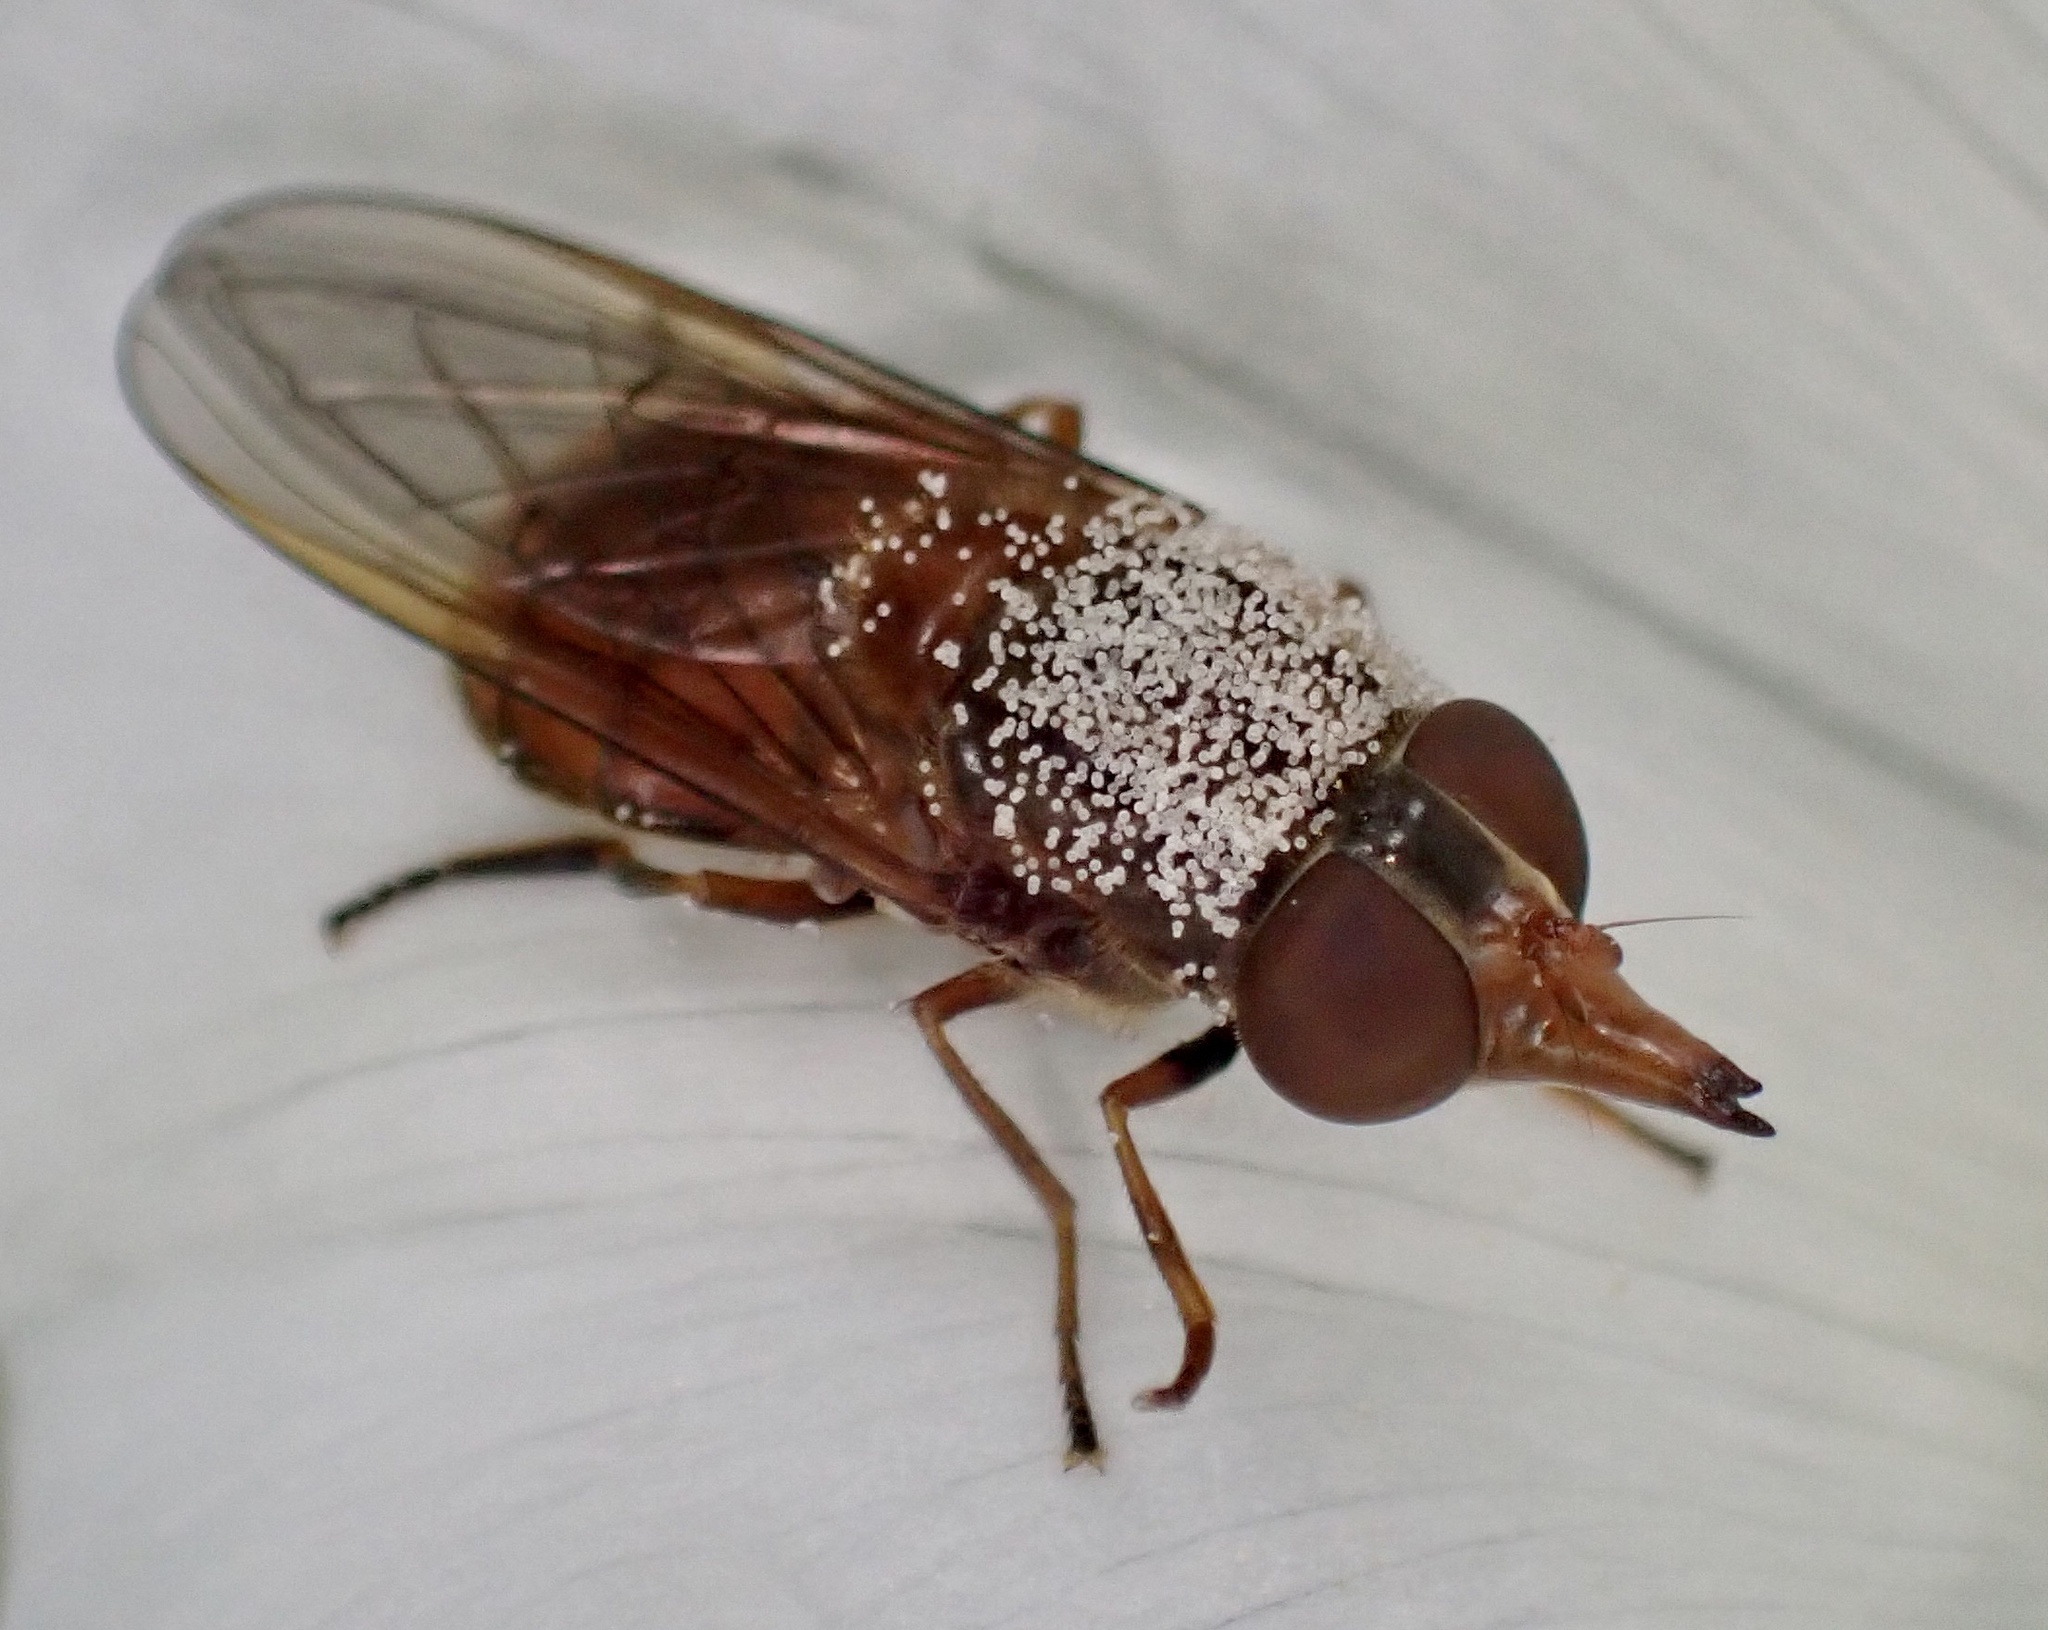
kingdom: Animalia
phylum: Arthropoda
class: Insecta
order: Diptera
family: Syrphidae
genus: Rhingia
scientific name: Rhingia campestris
